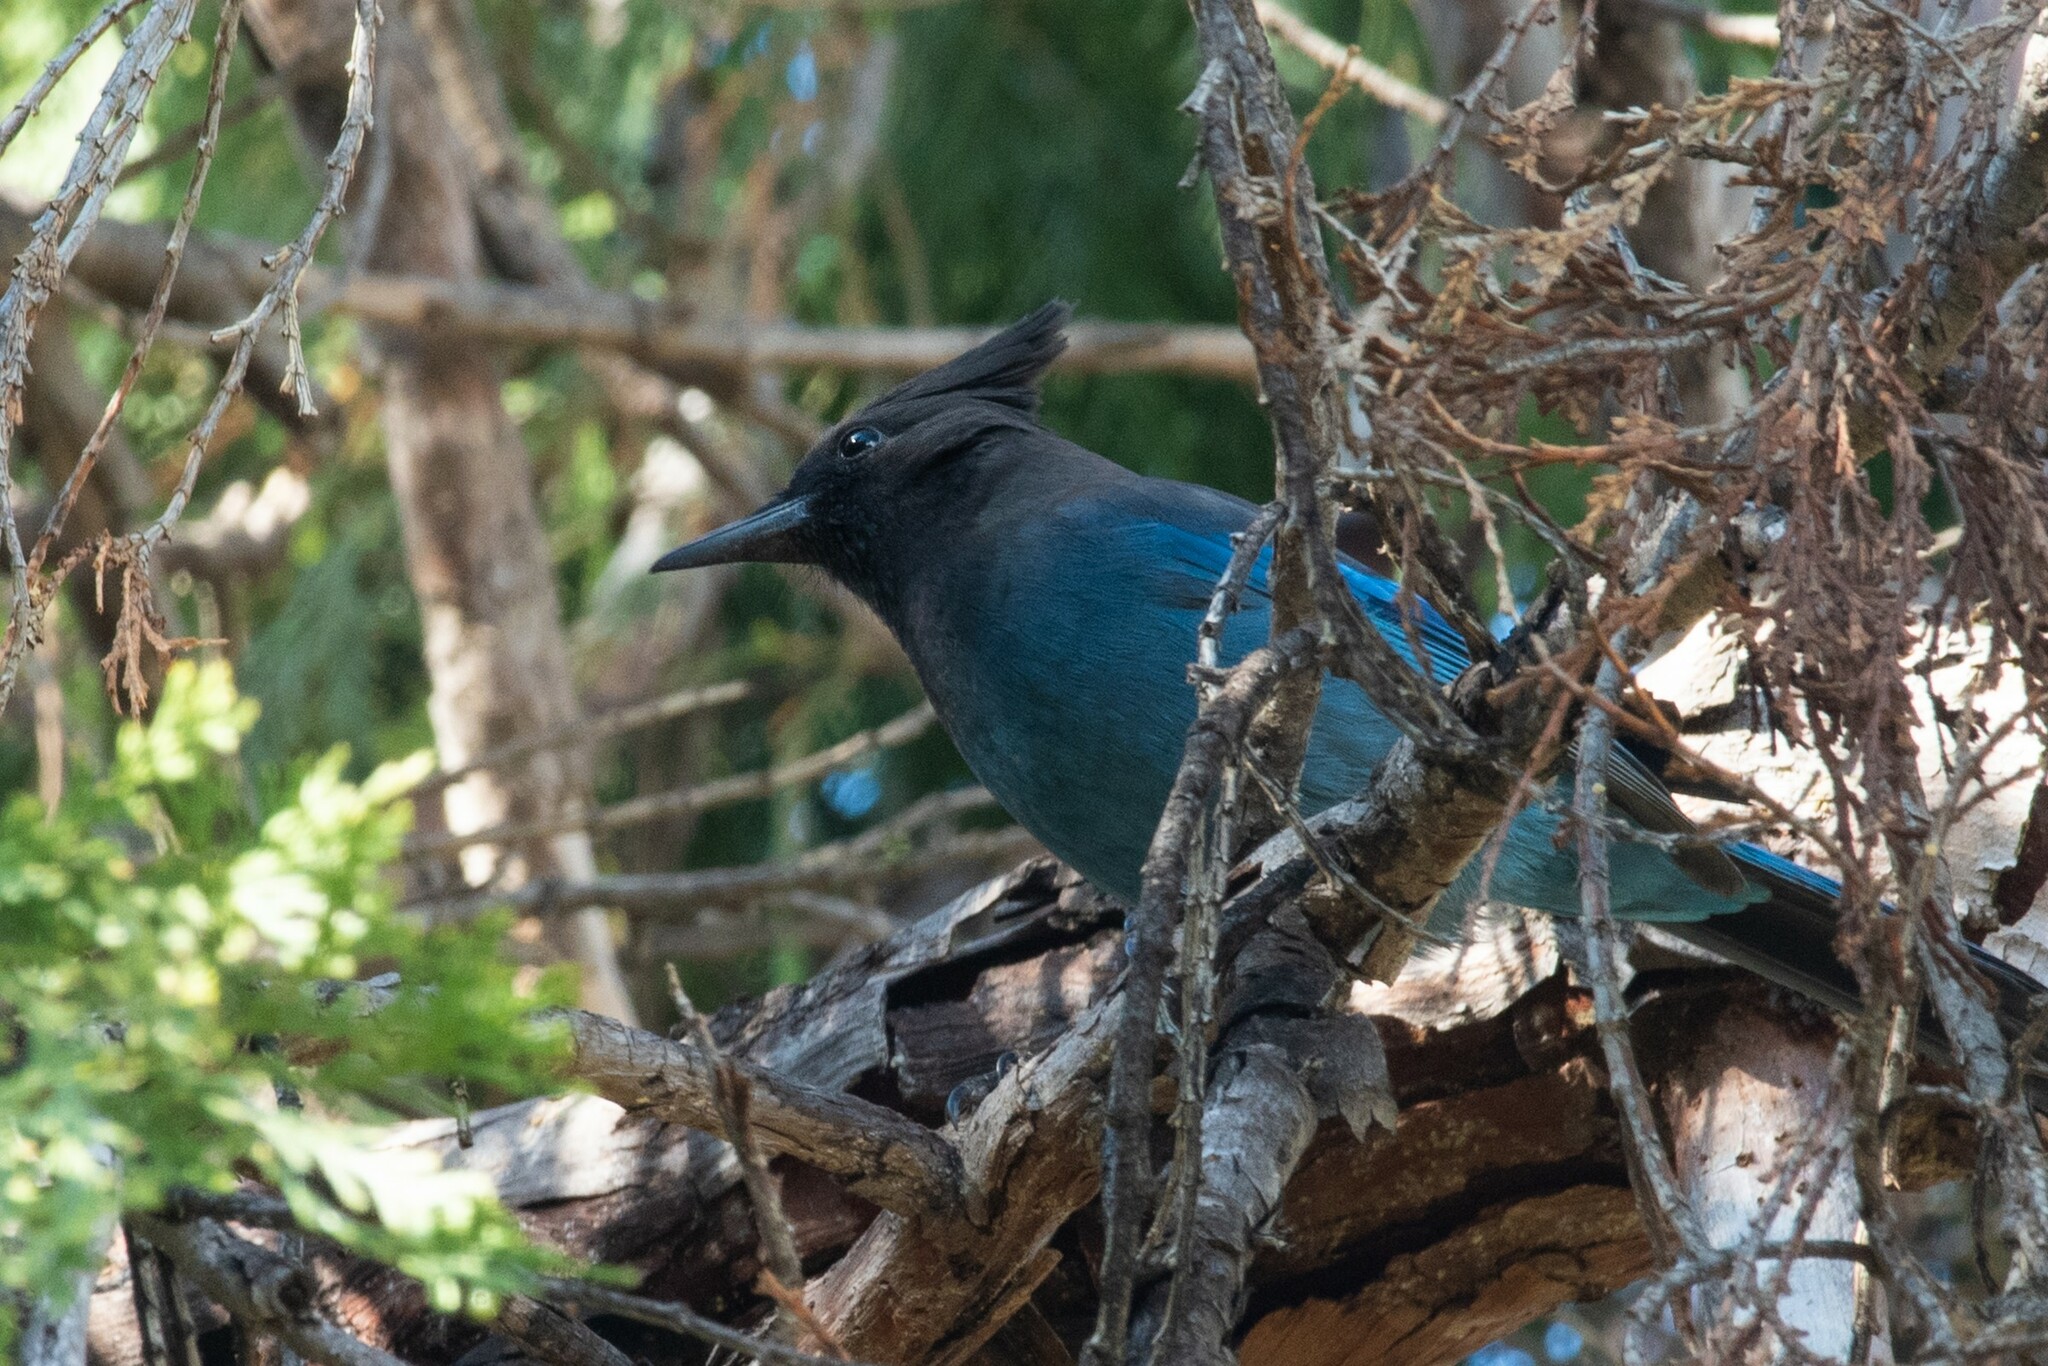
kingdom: Animalia
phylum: Chordata
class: Aves
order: Passeriformes
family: Corvidae
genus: Cyanocitta
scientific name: Cyanocitta stelleri
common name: Steller's jay
